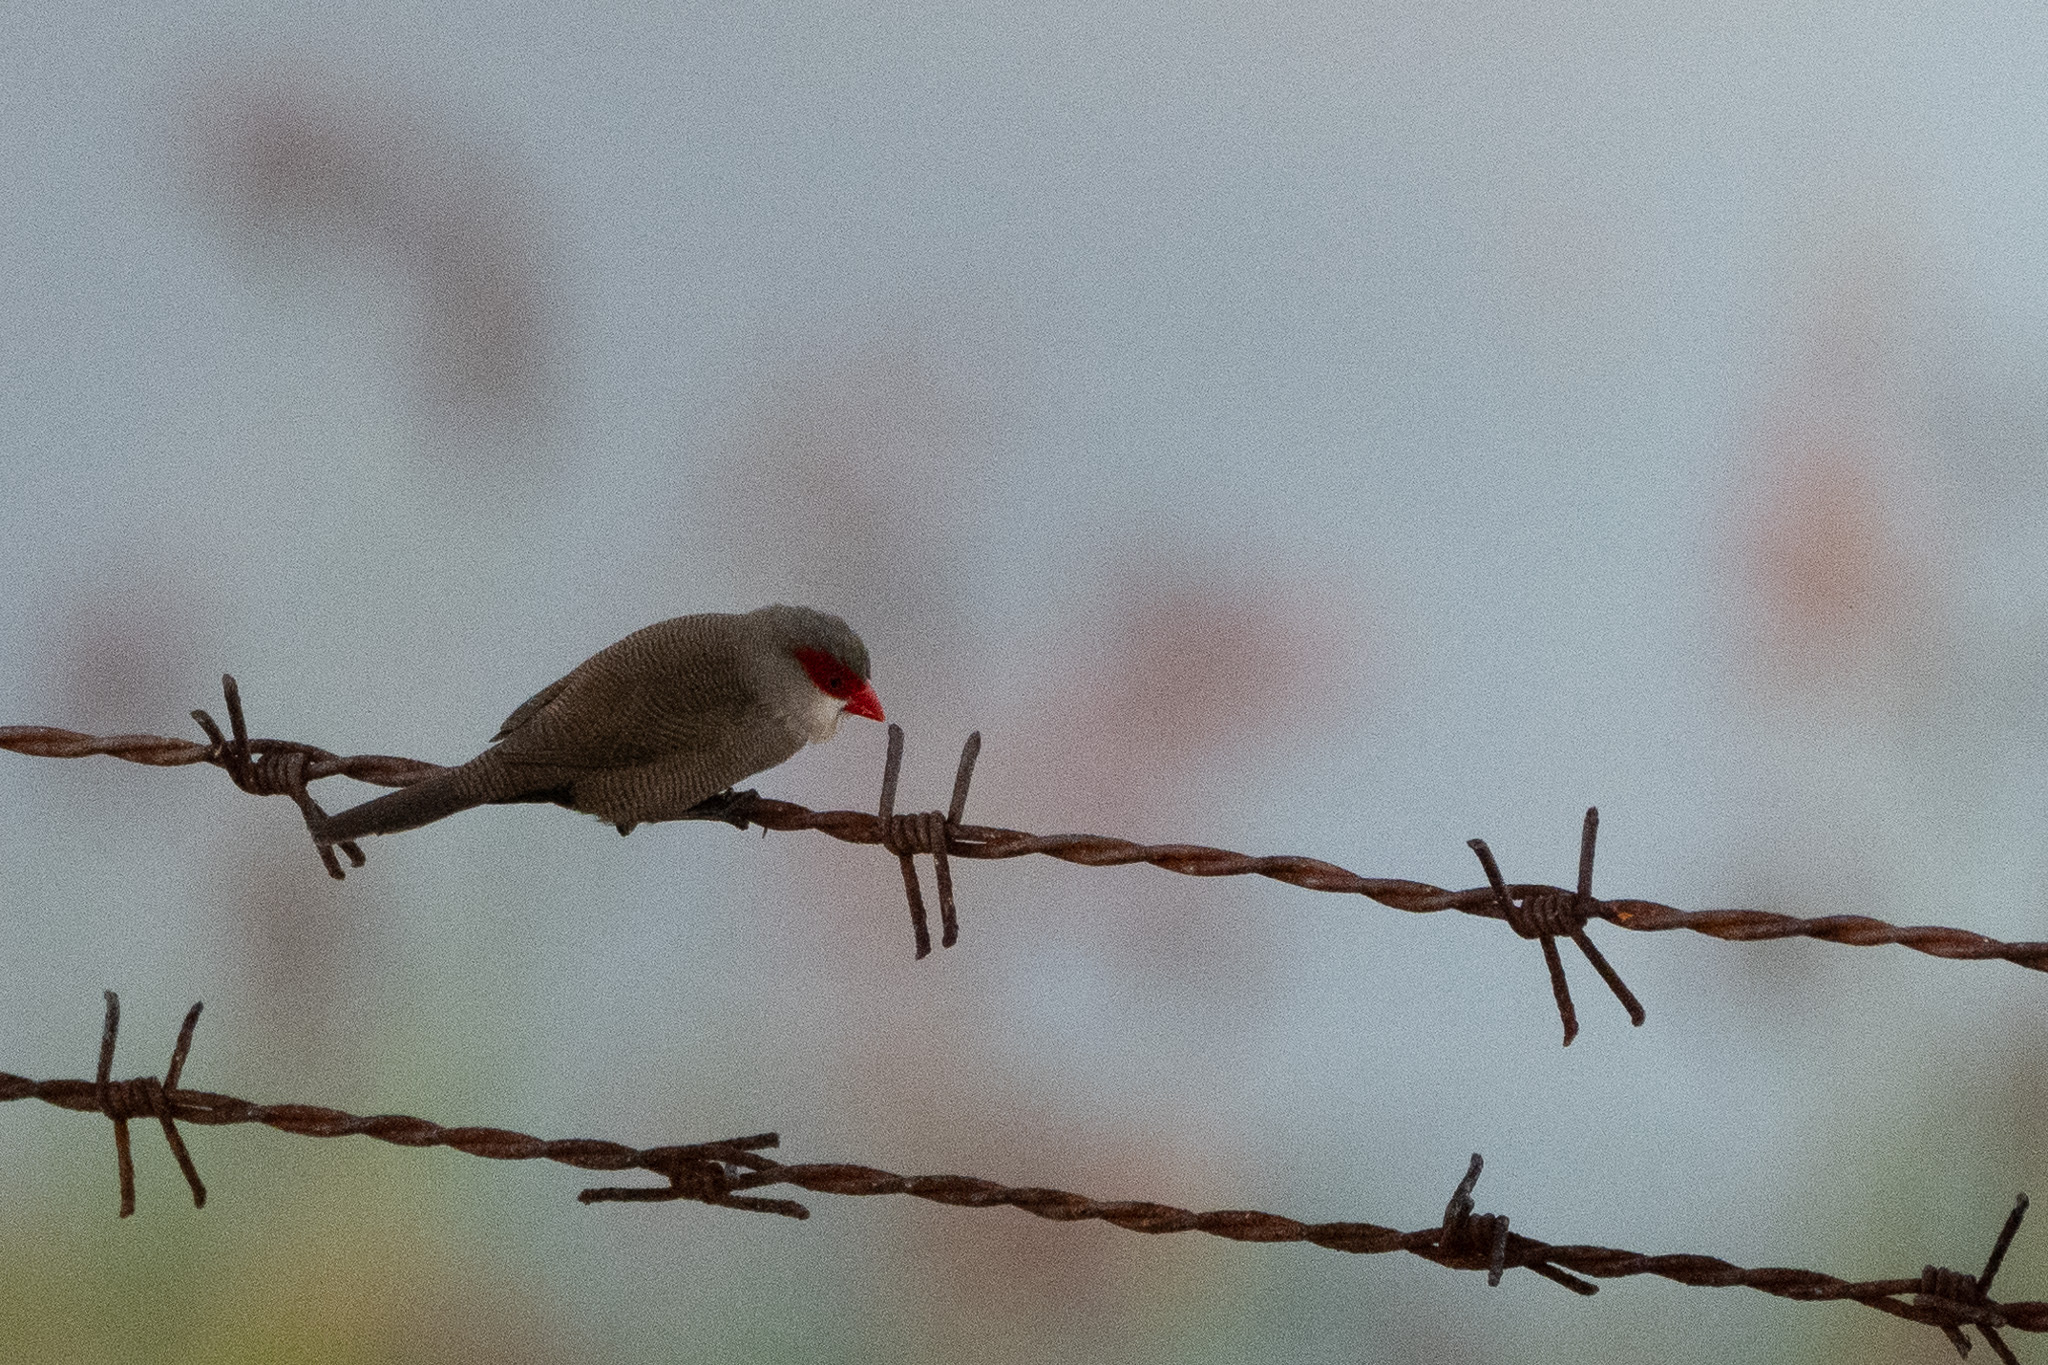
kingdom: Animalia
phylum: Chordata
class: Aves
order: Passeriformes
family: Estrildidae
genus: Estrilda
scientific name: Estrilda astrild
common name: Common waxbill
